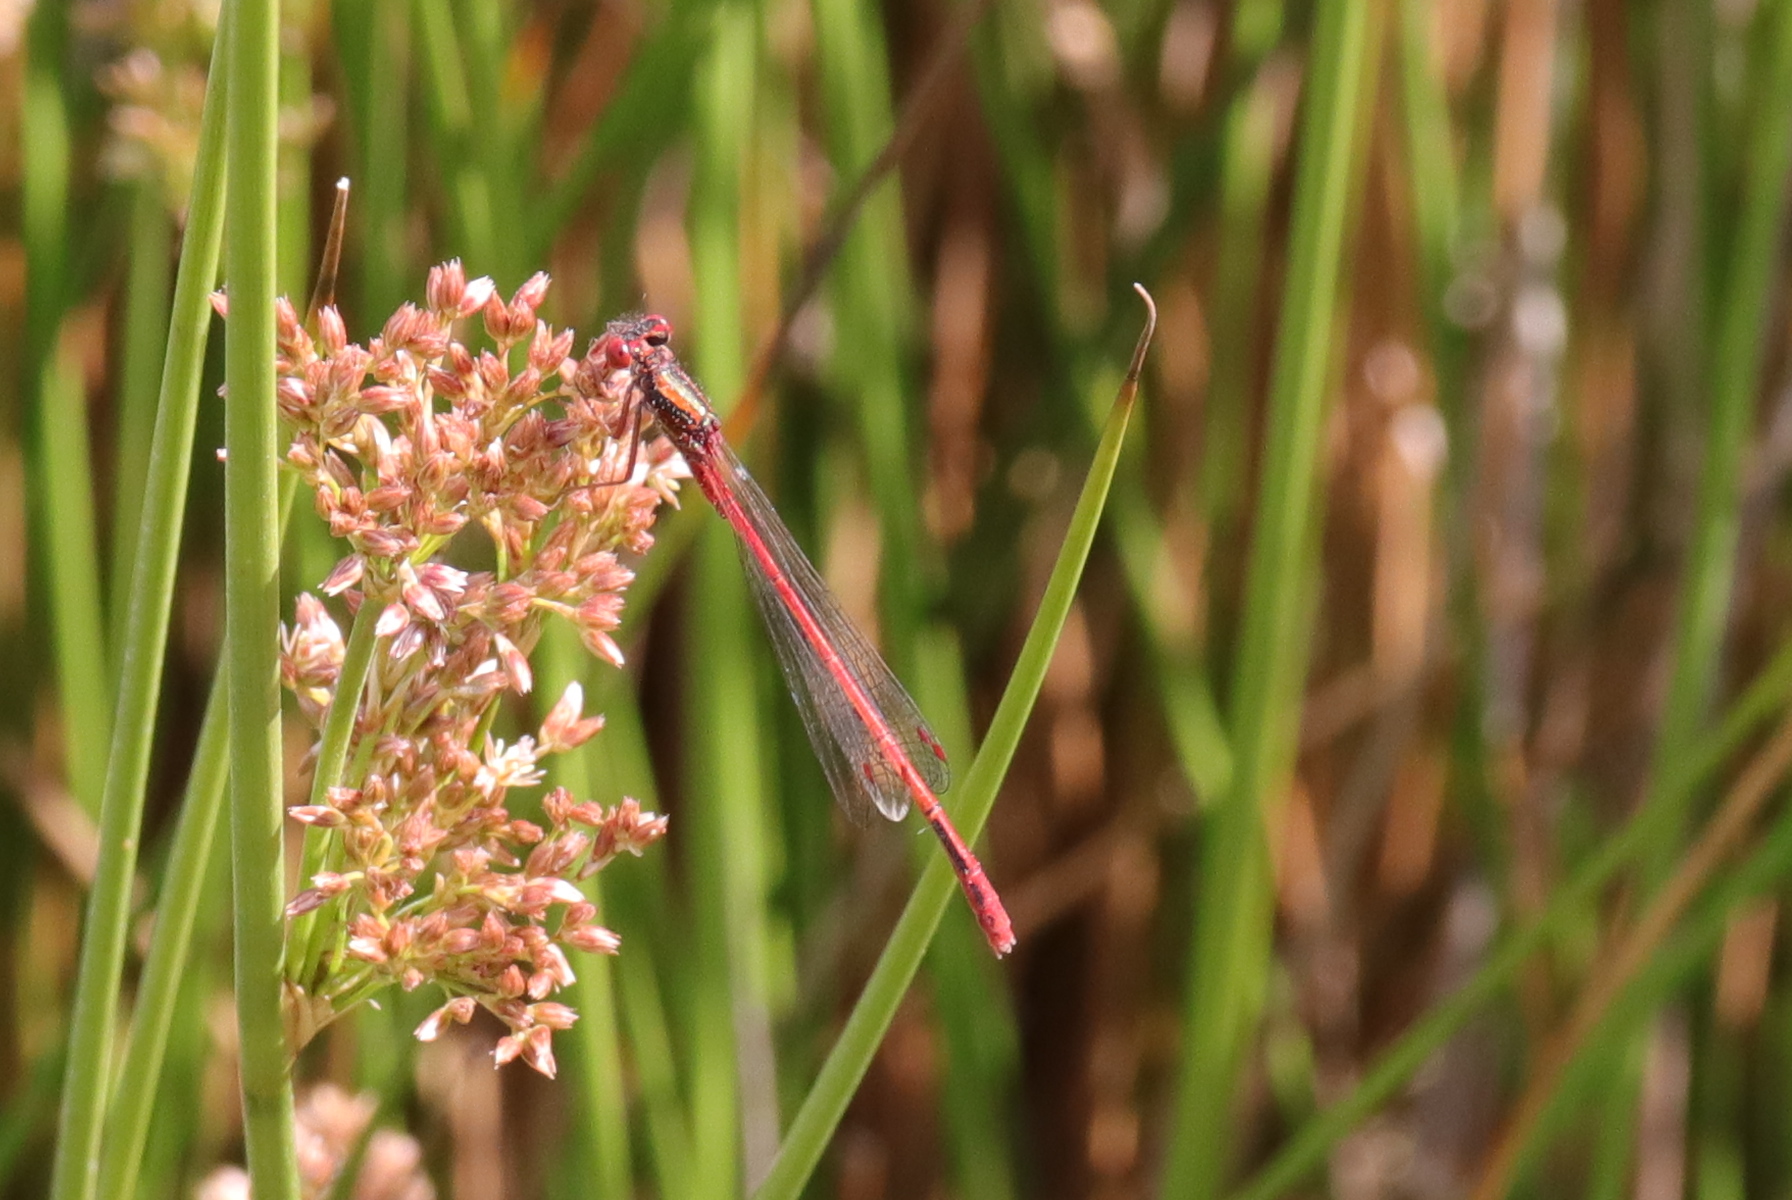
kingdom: Animalia
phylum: Arthropoda
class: Insecta
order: Odonata
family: Coenagrionidae
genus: Xanthocnemis
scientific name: Xanthocnemis zealandica
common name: Common redcoat damselfly
